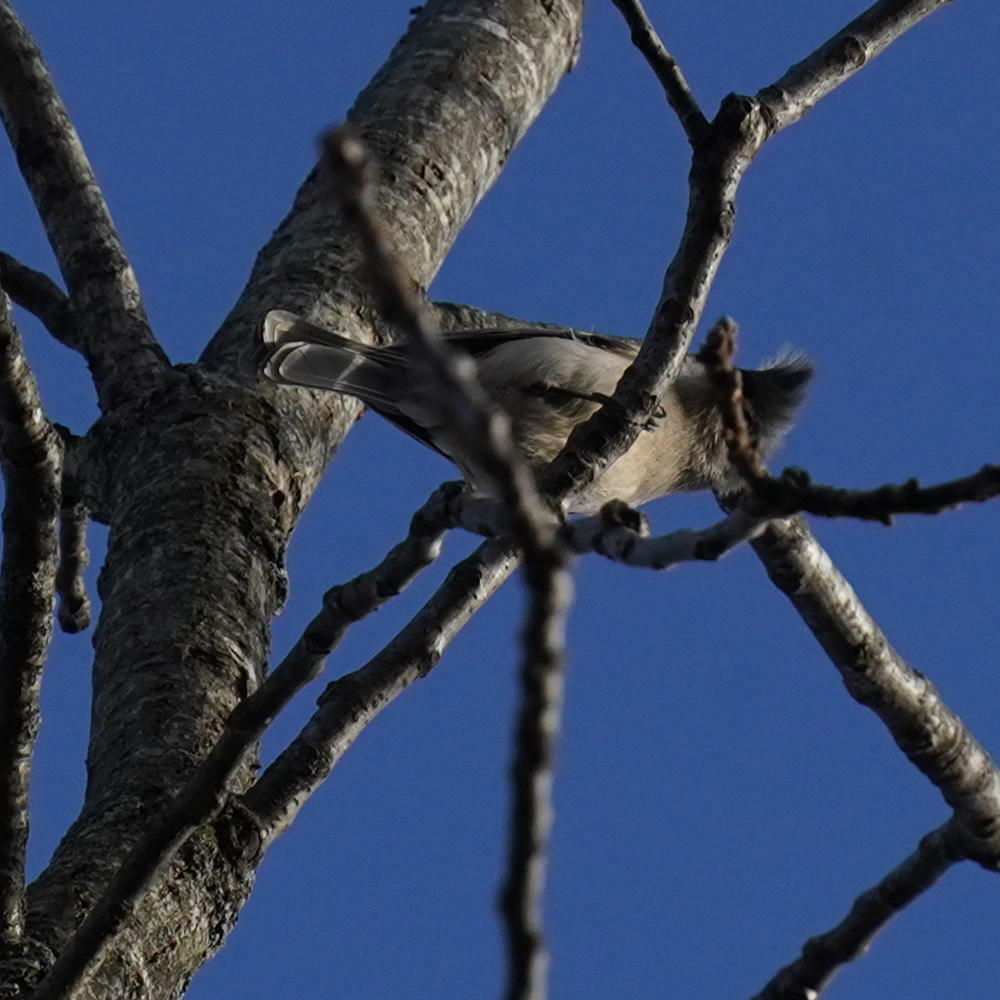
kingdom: Animalia
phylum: Chordata
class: Aves
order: Passeriformes
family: Paridae
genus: Baeolophus
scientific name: Baeolophus bicolor
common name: Tufted titmouse
